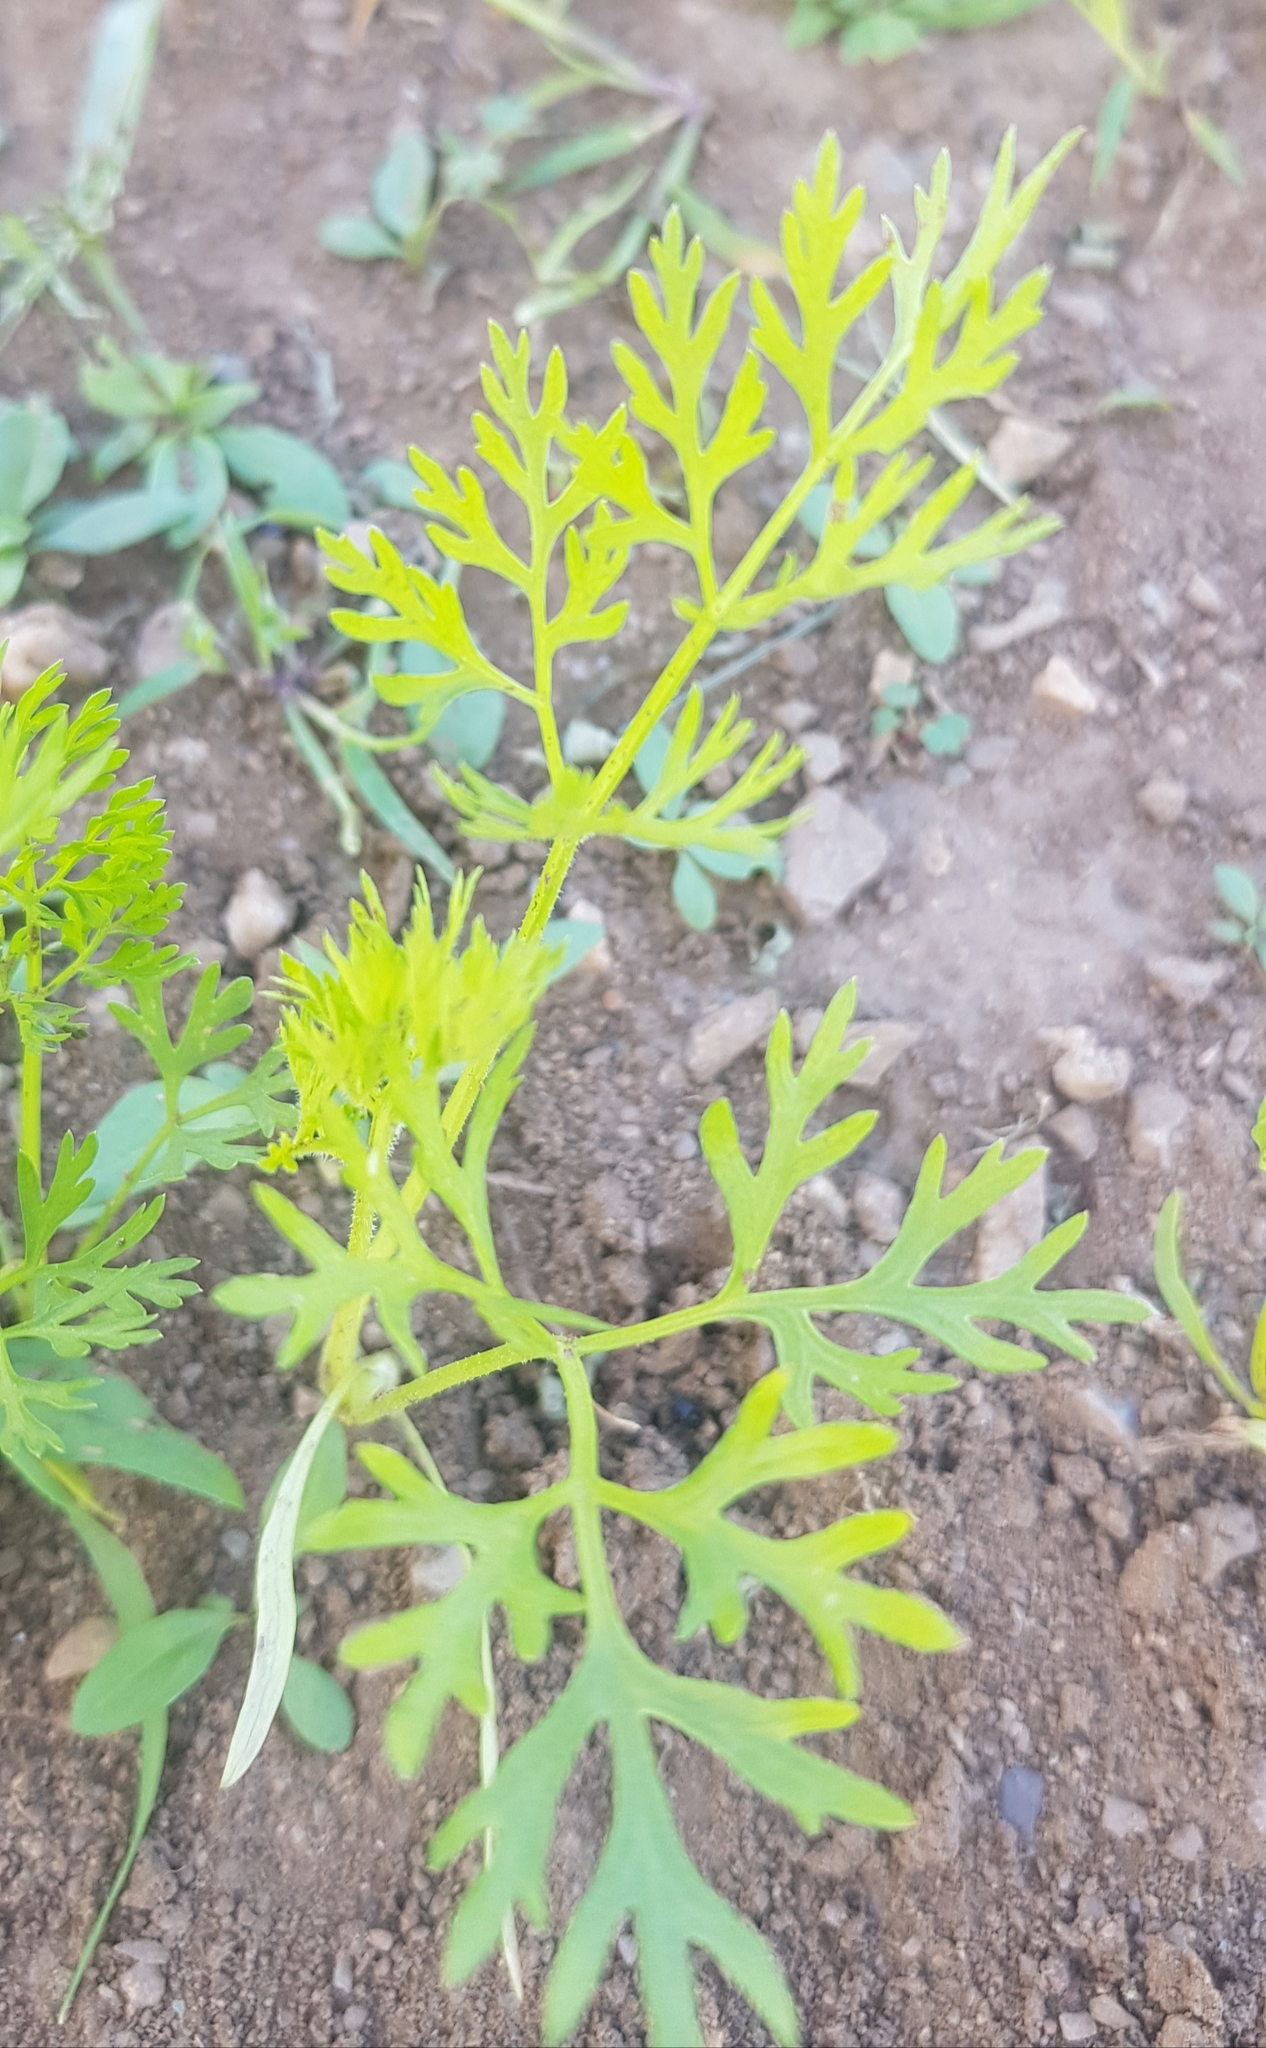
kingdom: Plantae
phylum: Tracheophyta
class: Magnoliopsida
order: Apiales
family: Apiaceae
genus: Daucus
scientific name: Daucus carota
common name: Wild carrot
